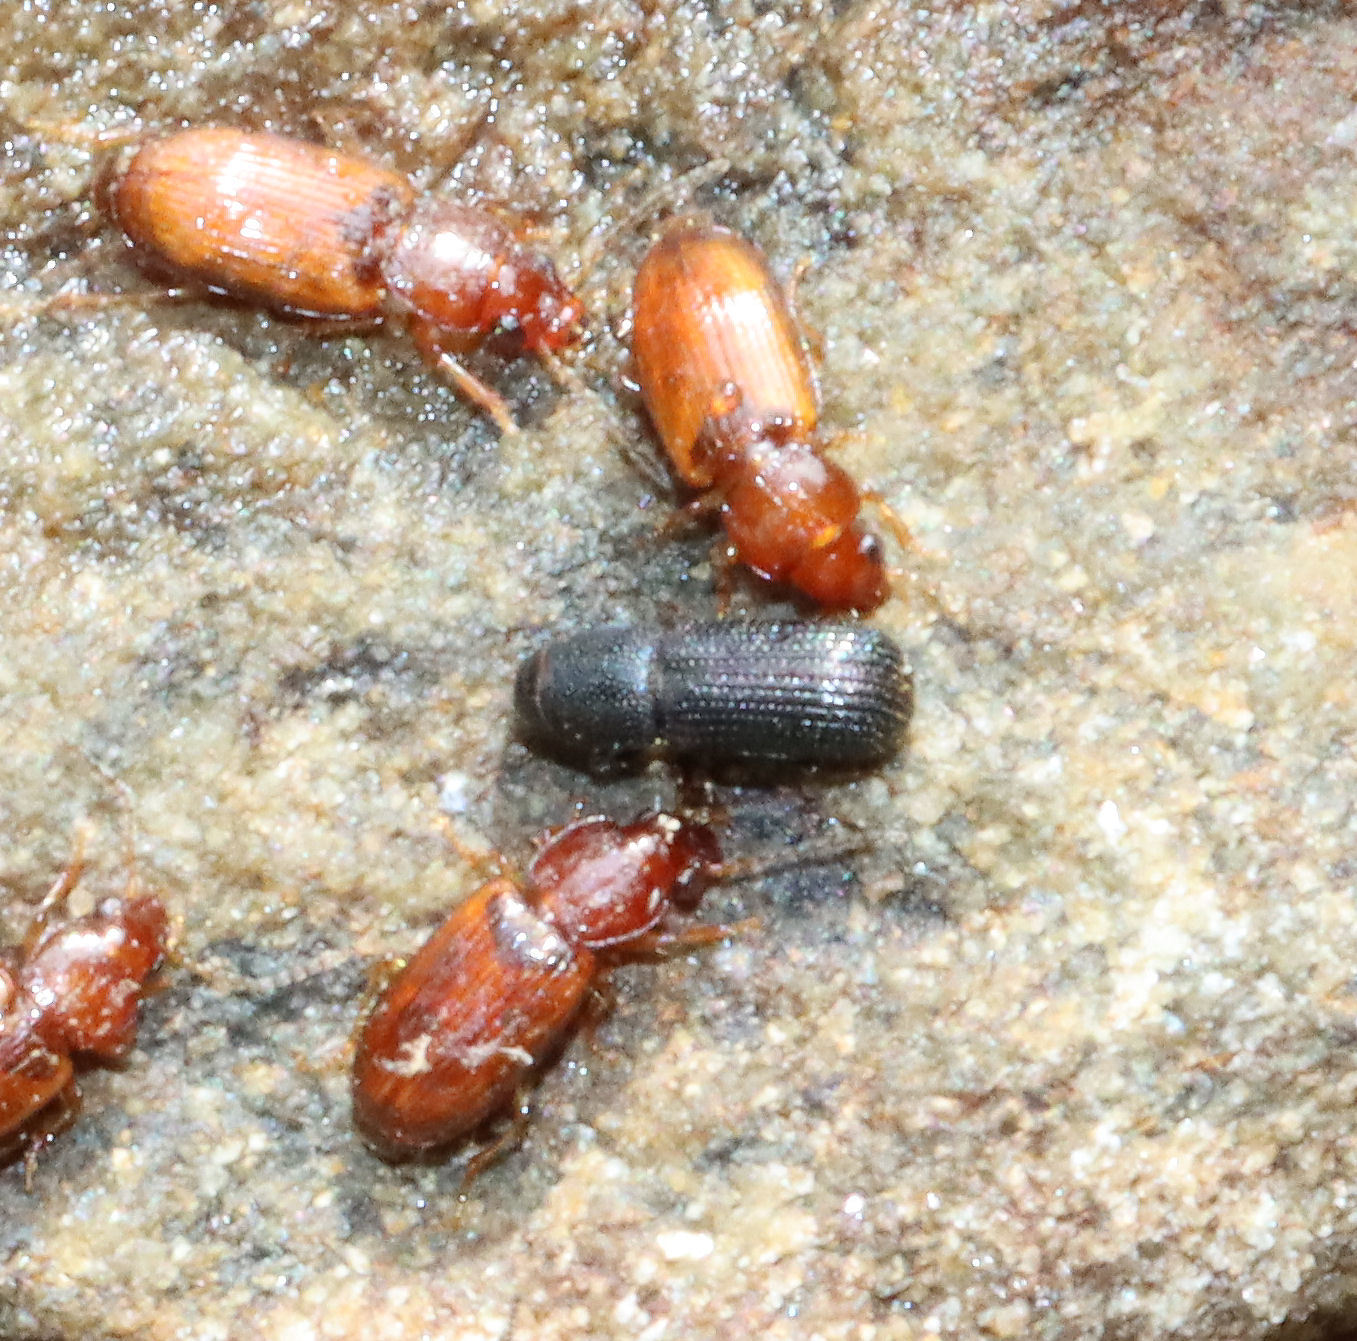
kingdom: Animalia
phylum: Arthropoda
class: Insecta
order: Coleoptera
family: Curculionidae
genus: Stenoscelis
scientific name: Stenoscelis brevis
